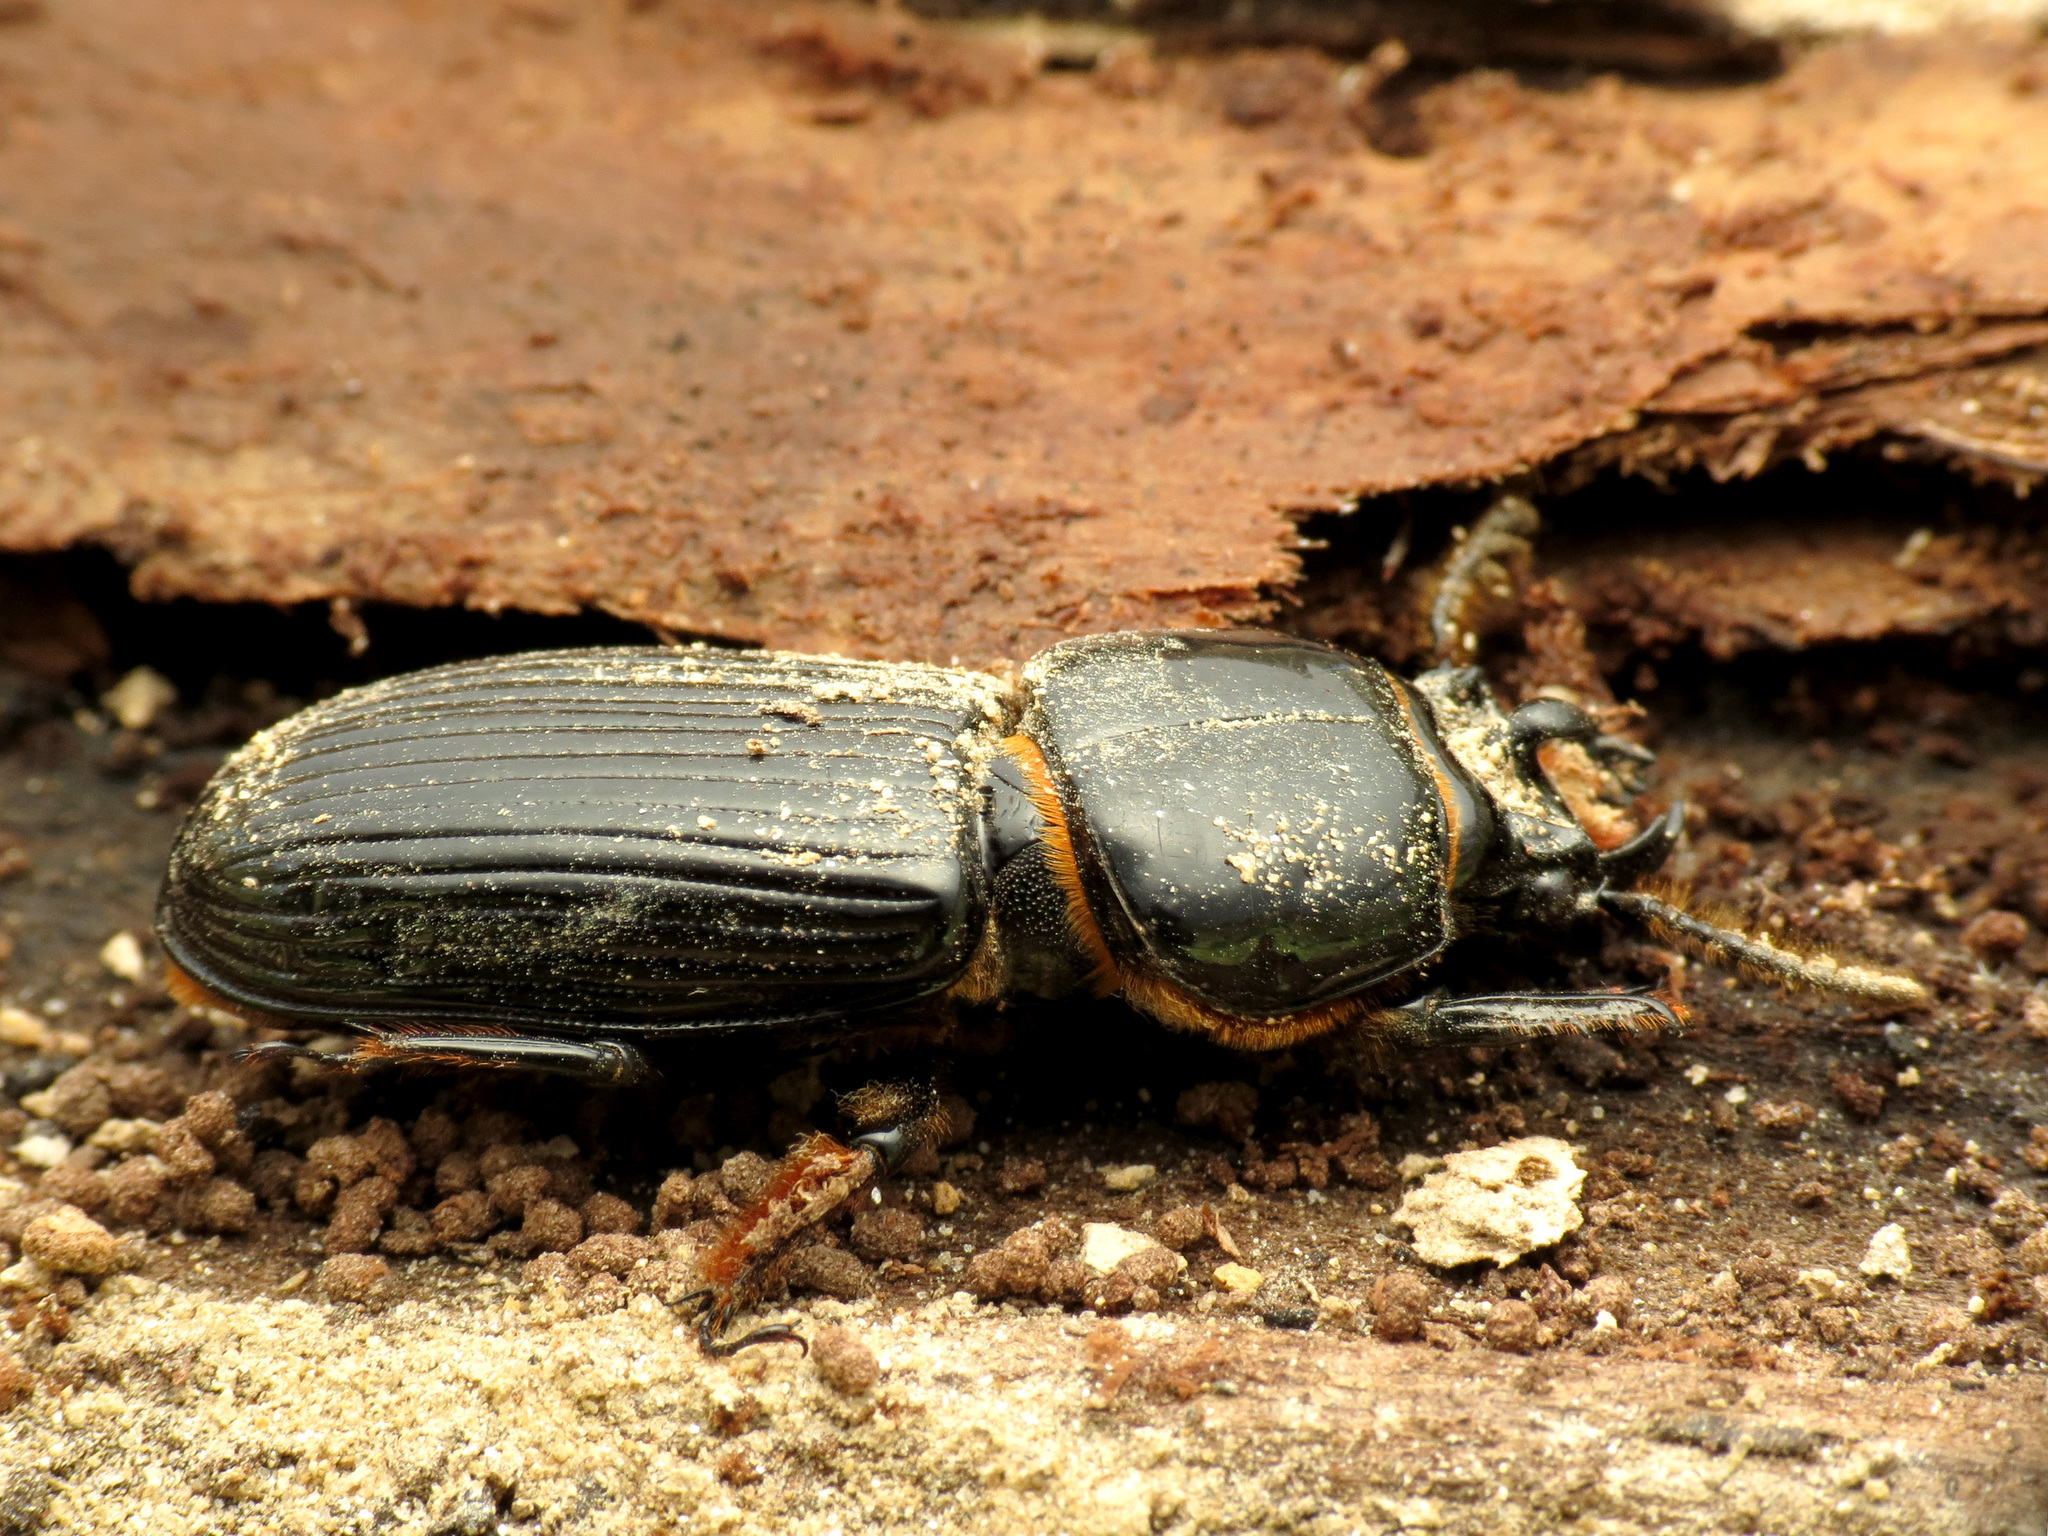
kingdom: Animalia
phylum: Arthropoda
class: Insecta
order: Coleoptera
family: Passalidae
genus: Odontotaenius
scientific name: Odontotaenius disjunctus
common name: Patent leather beetle
